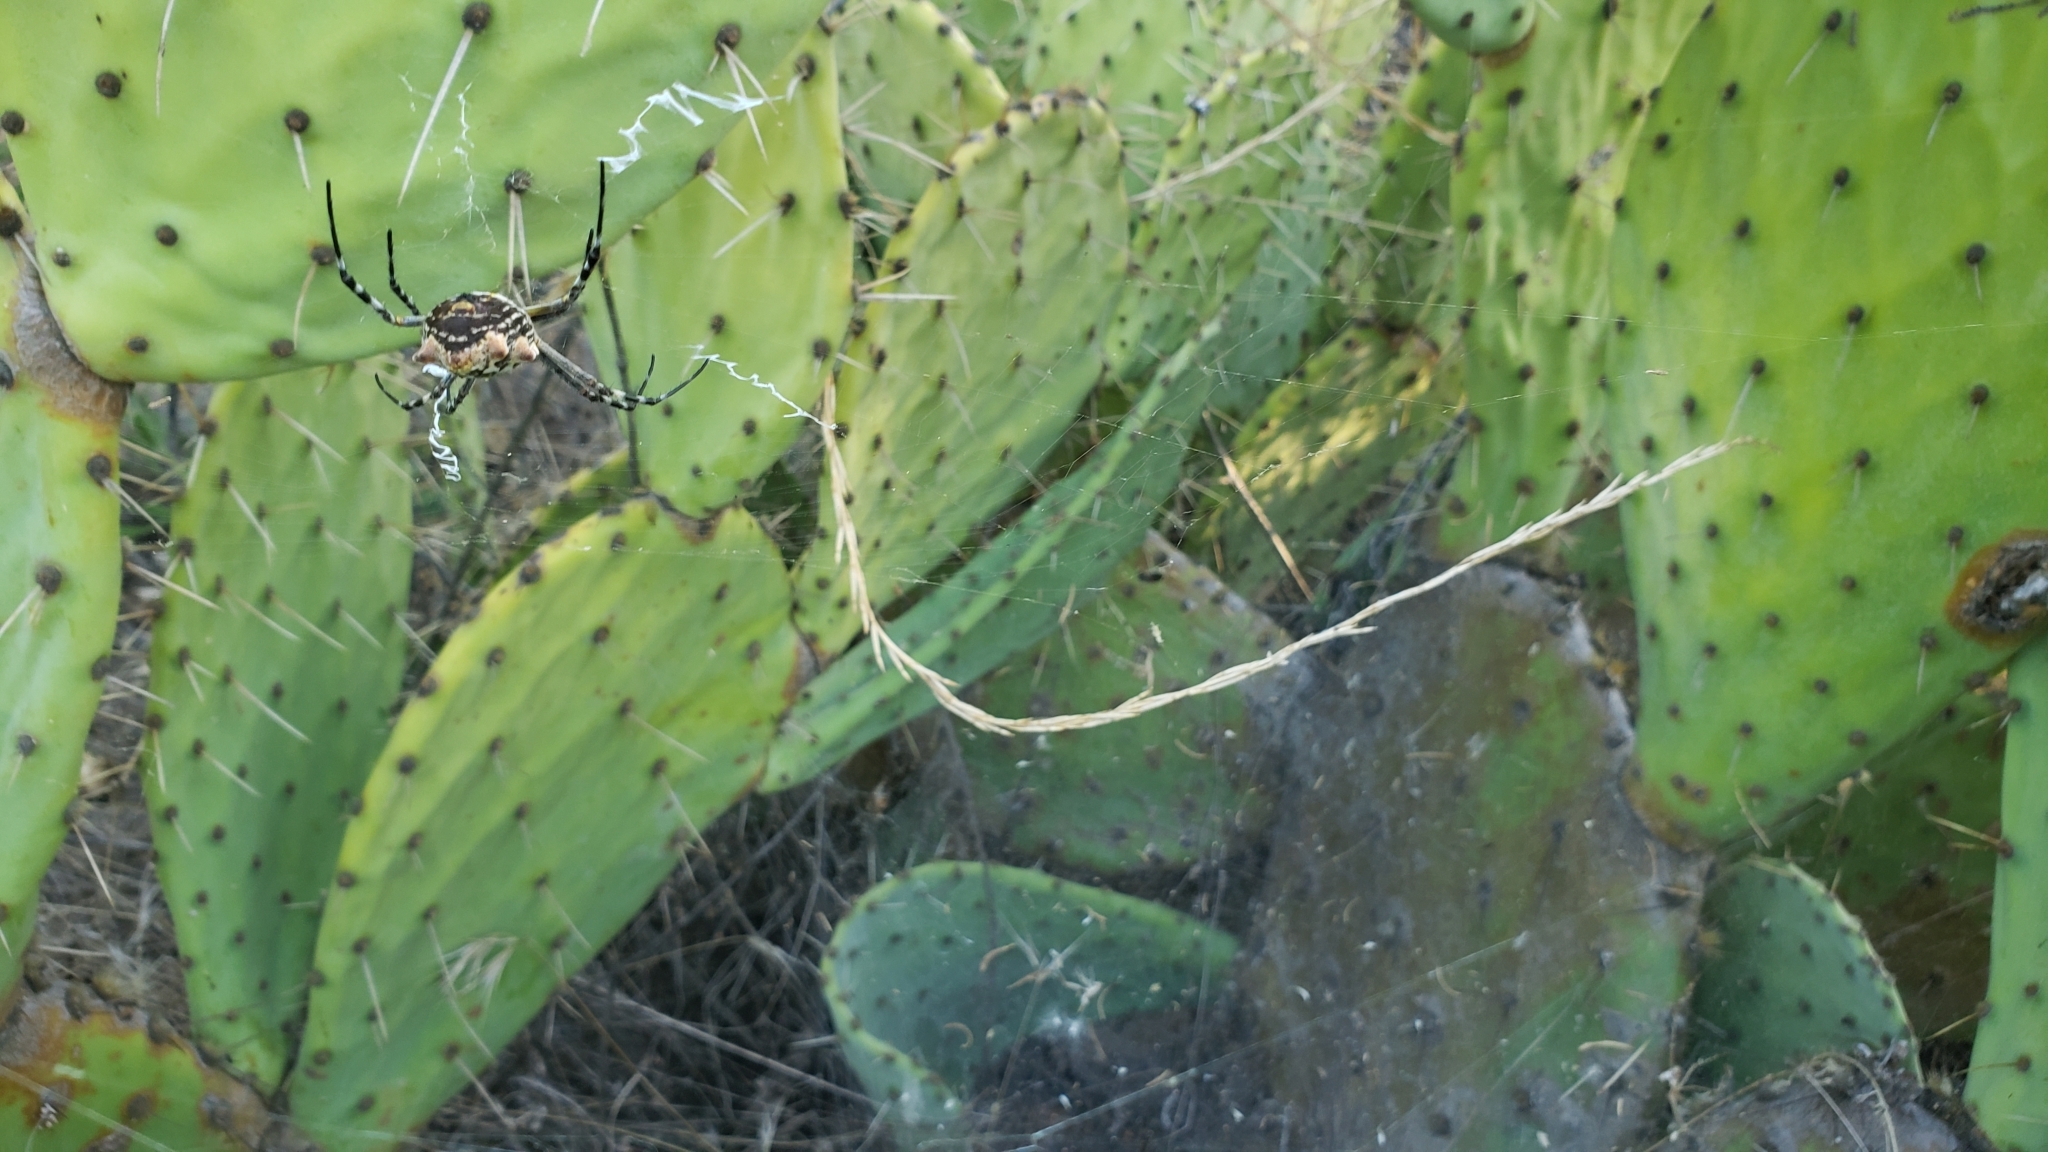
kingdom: Animalia
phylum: Arthropoda
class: Arachnida
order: Araneae
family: Araneidae
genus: Argiope
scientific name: Argiope argentata
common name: Orb weavers
